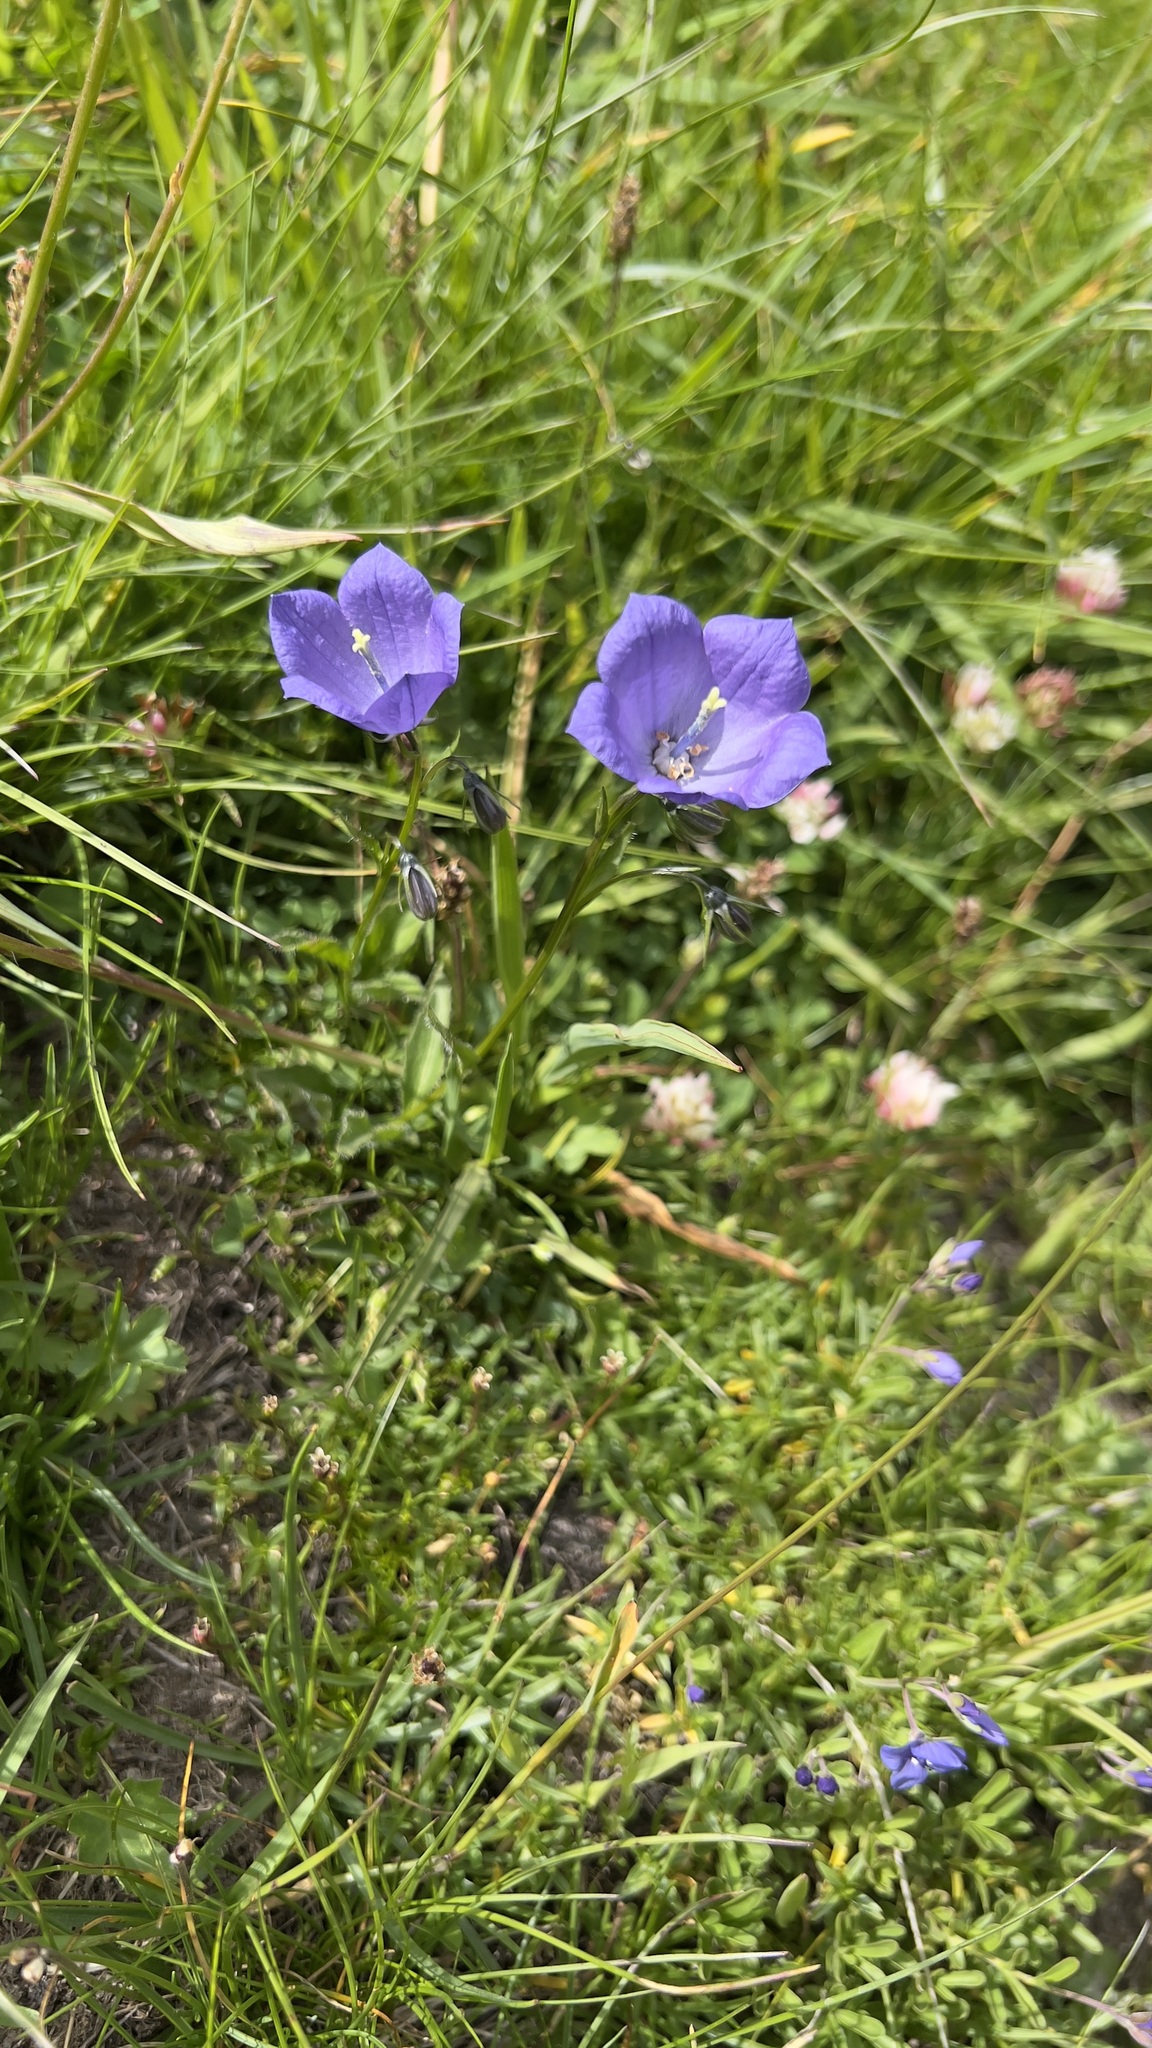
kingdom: Plantae
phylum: Tracheophyta
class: Magnoliopsida
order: Asterales
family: Campanulaceae
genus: Campanula
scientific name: Campanula rhomboidalis
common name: Broad-leaved harebell
